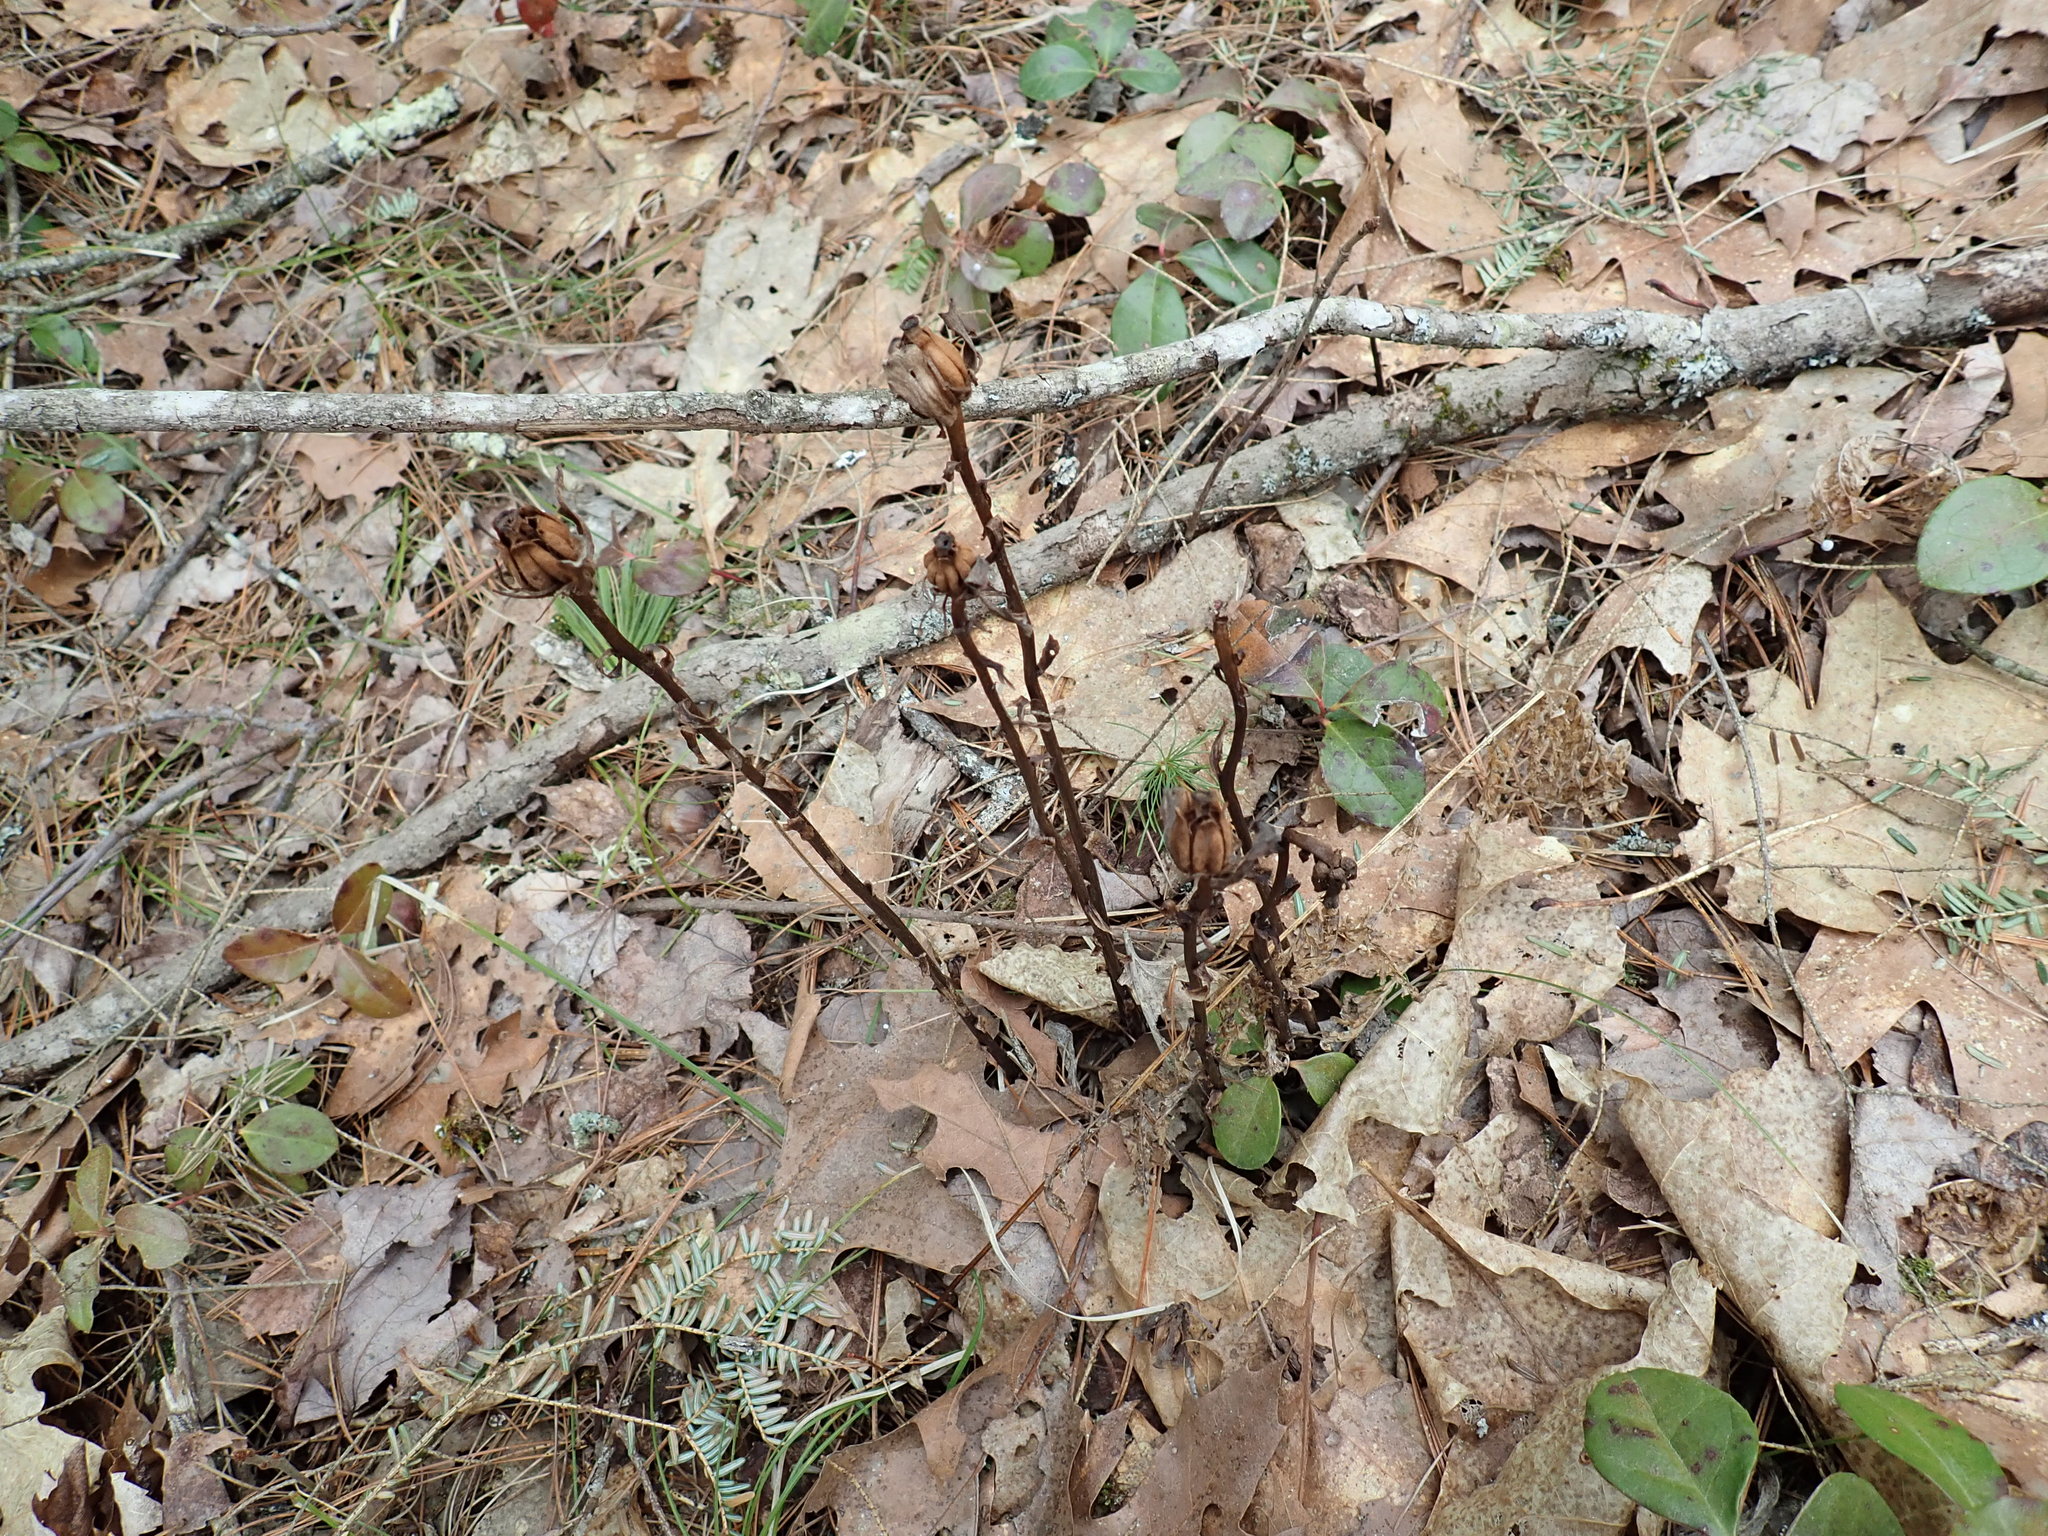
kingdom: Plantae
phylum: Tracheophyta
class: Magnoliopsida
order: Ericales
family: Ericaceae
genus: Monotropa
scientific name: Monotropa uniflora
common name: Convulsion root
